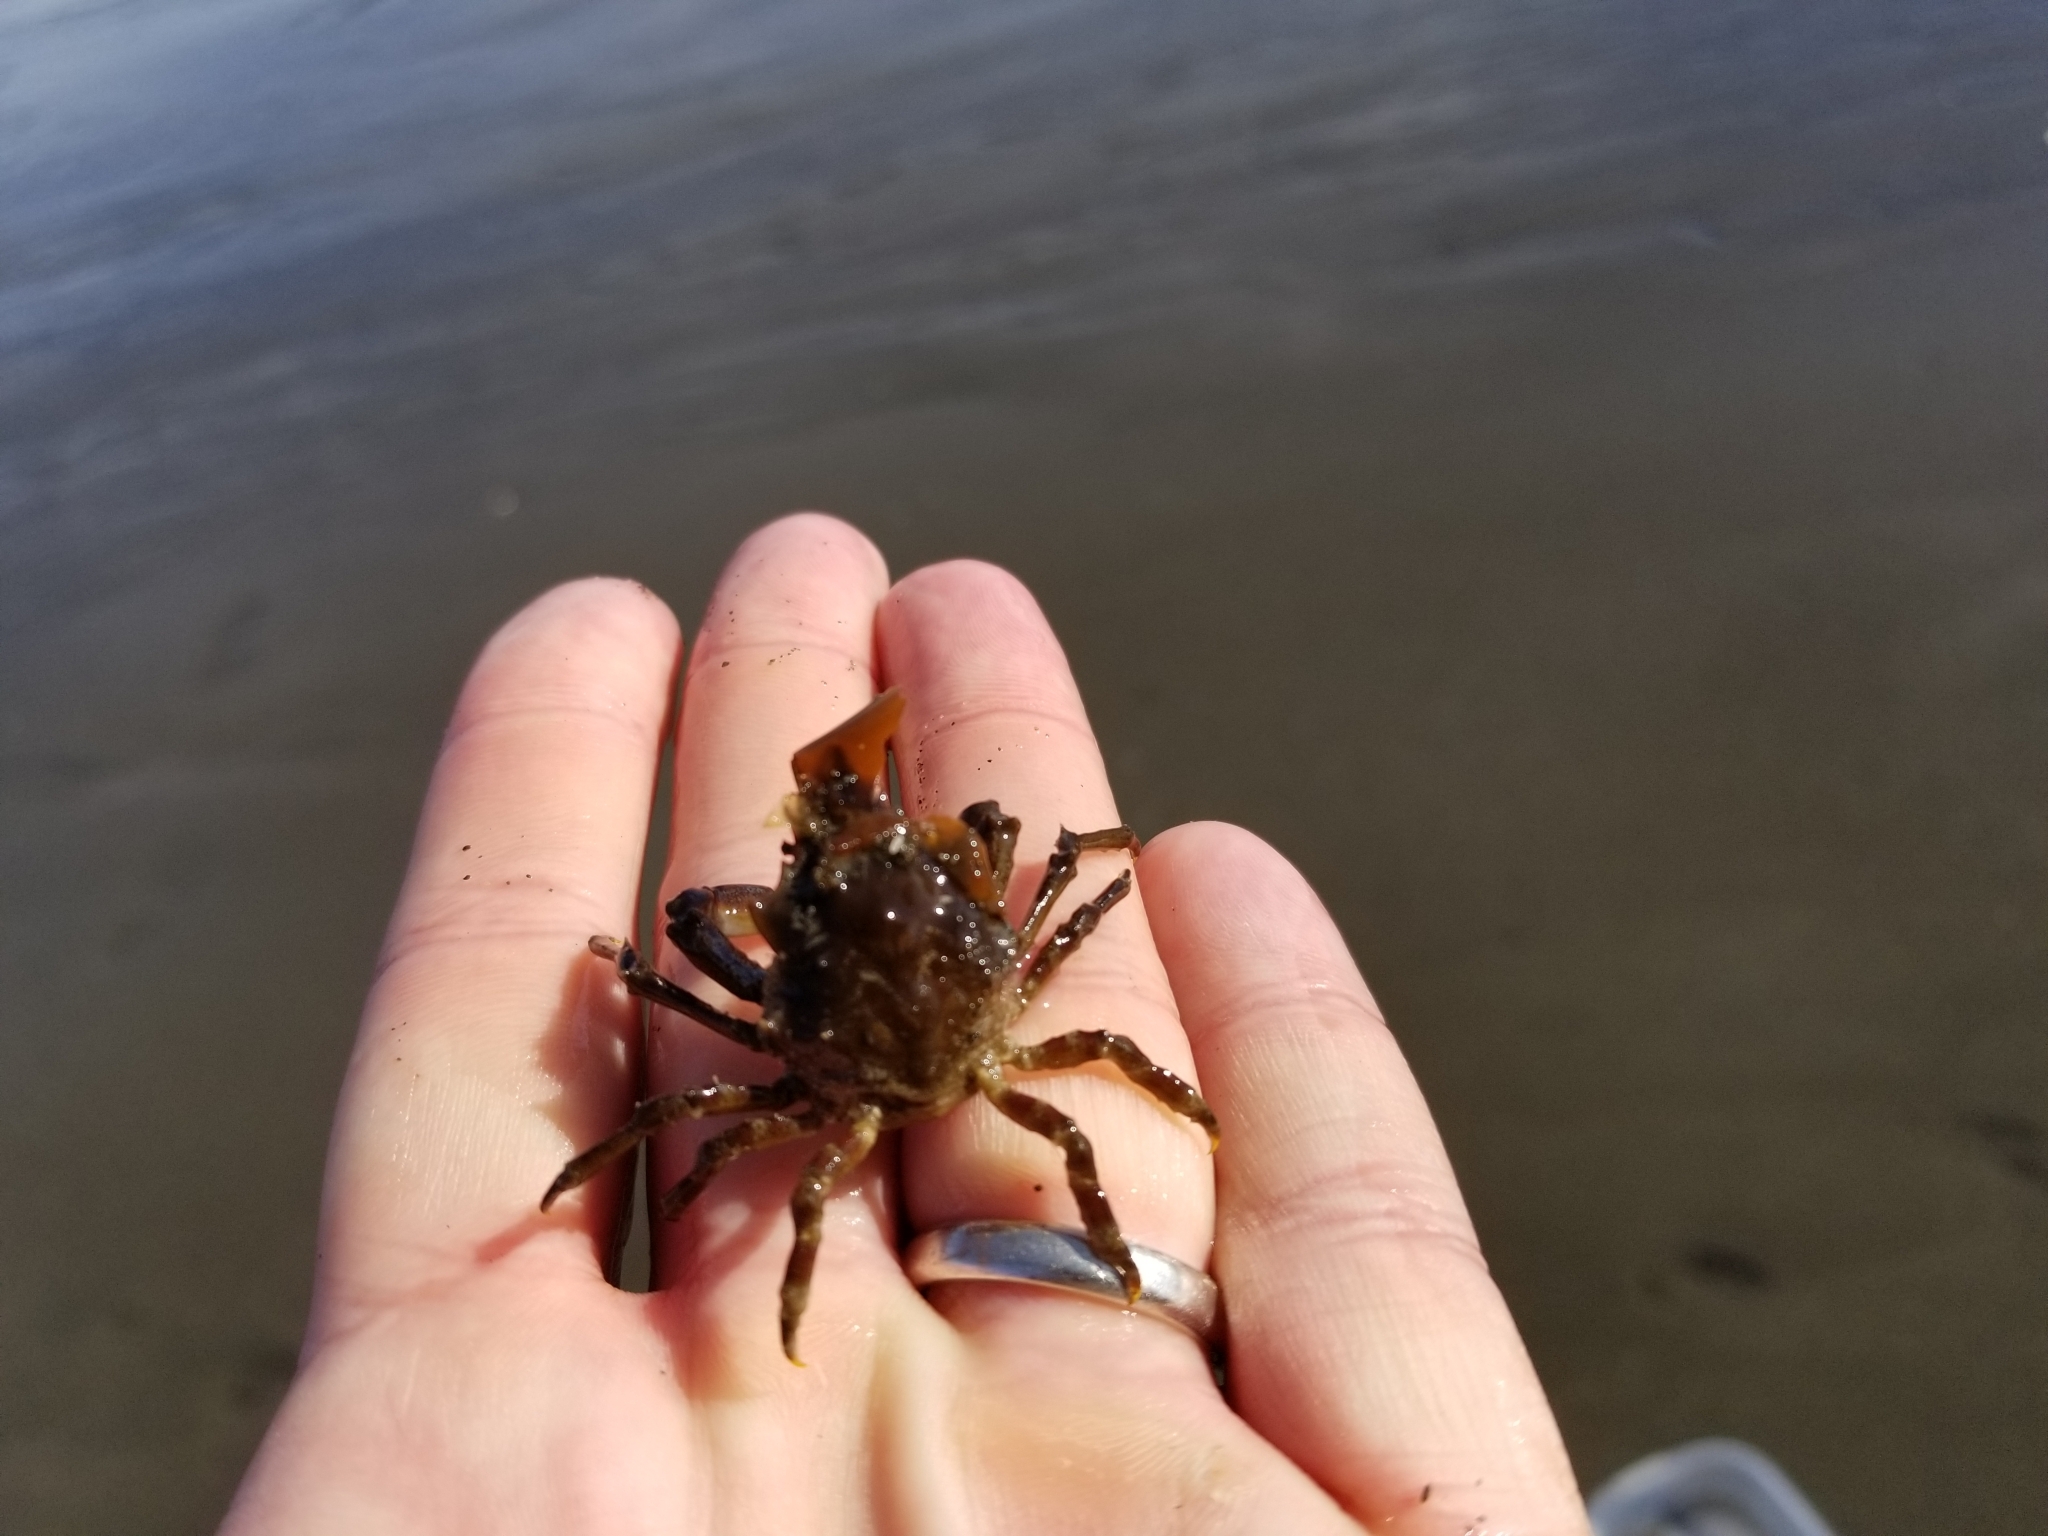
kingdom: Animalia
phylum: Arthropoda
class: Malacostraca
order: Decapoda
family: Epialtidae
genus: Pugettia
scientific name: Pugettia gracilis
